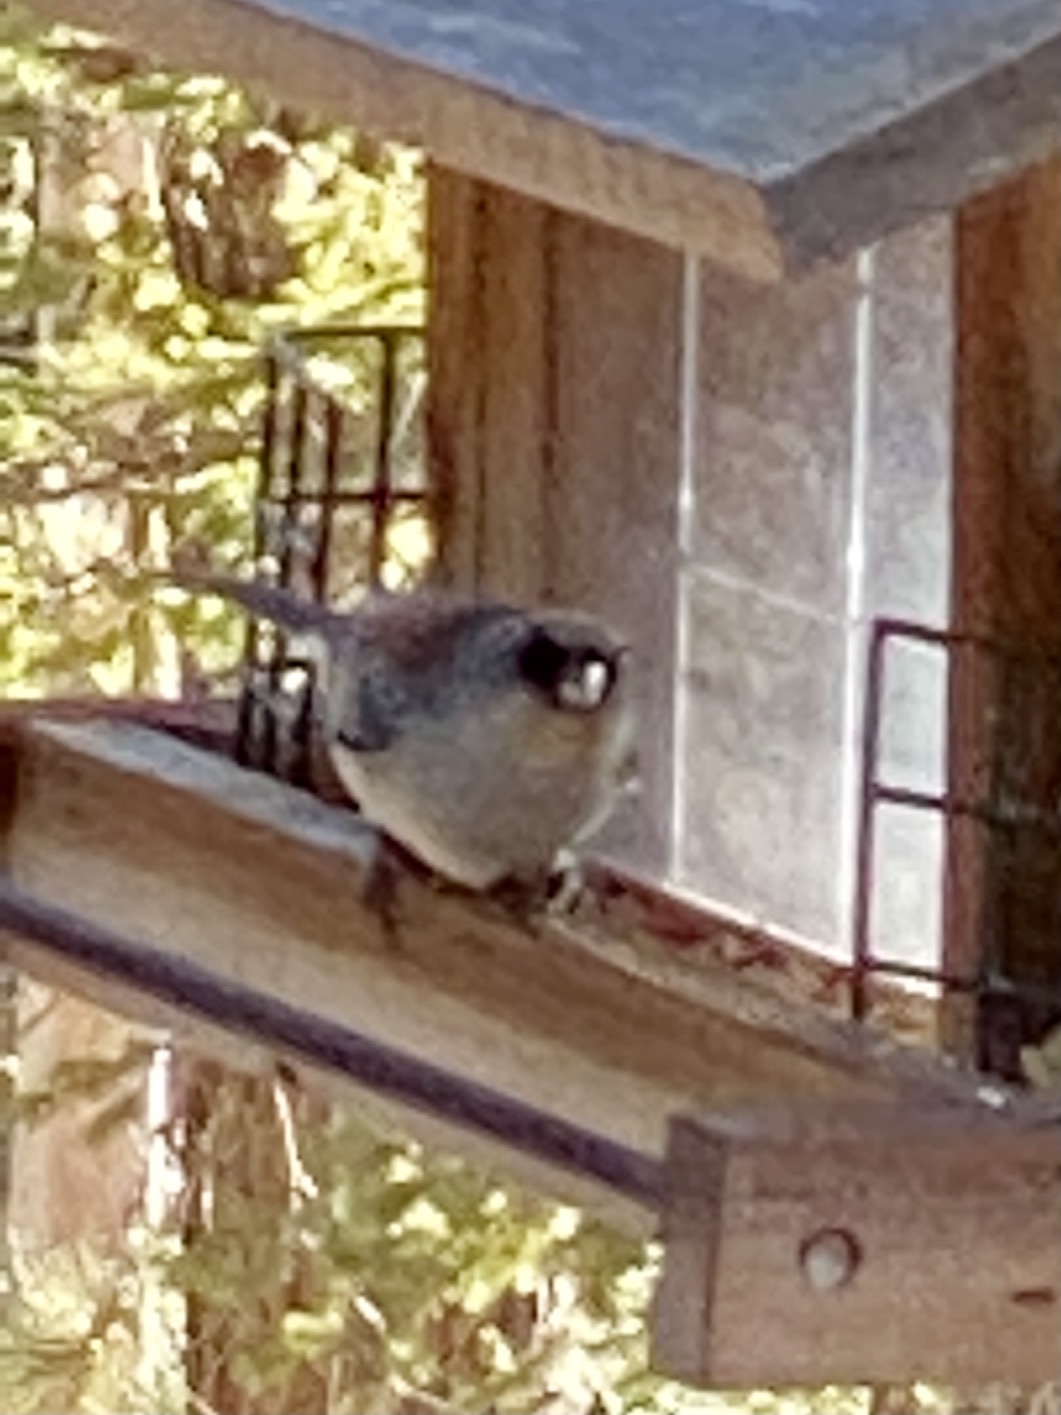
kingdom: Animalia
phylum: Chordata
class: Aves
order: Passeriformes
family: Passerellidae
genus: Junco
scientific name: Junco hyemalis
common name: Dark-eyed junco
